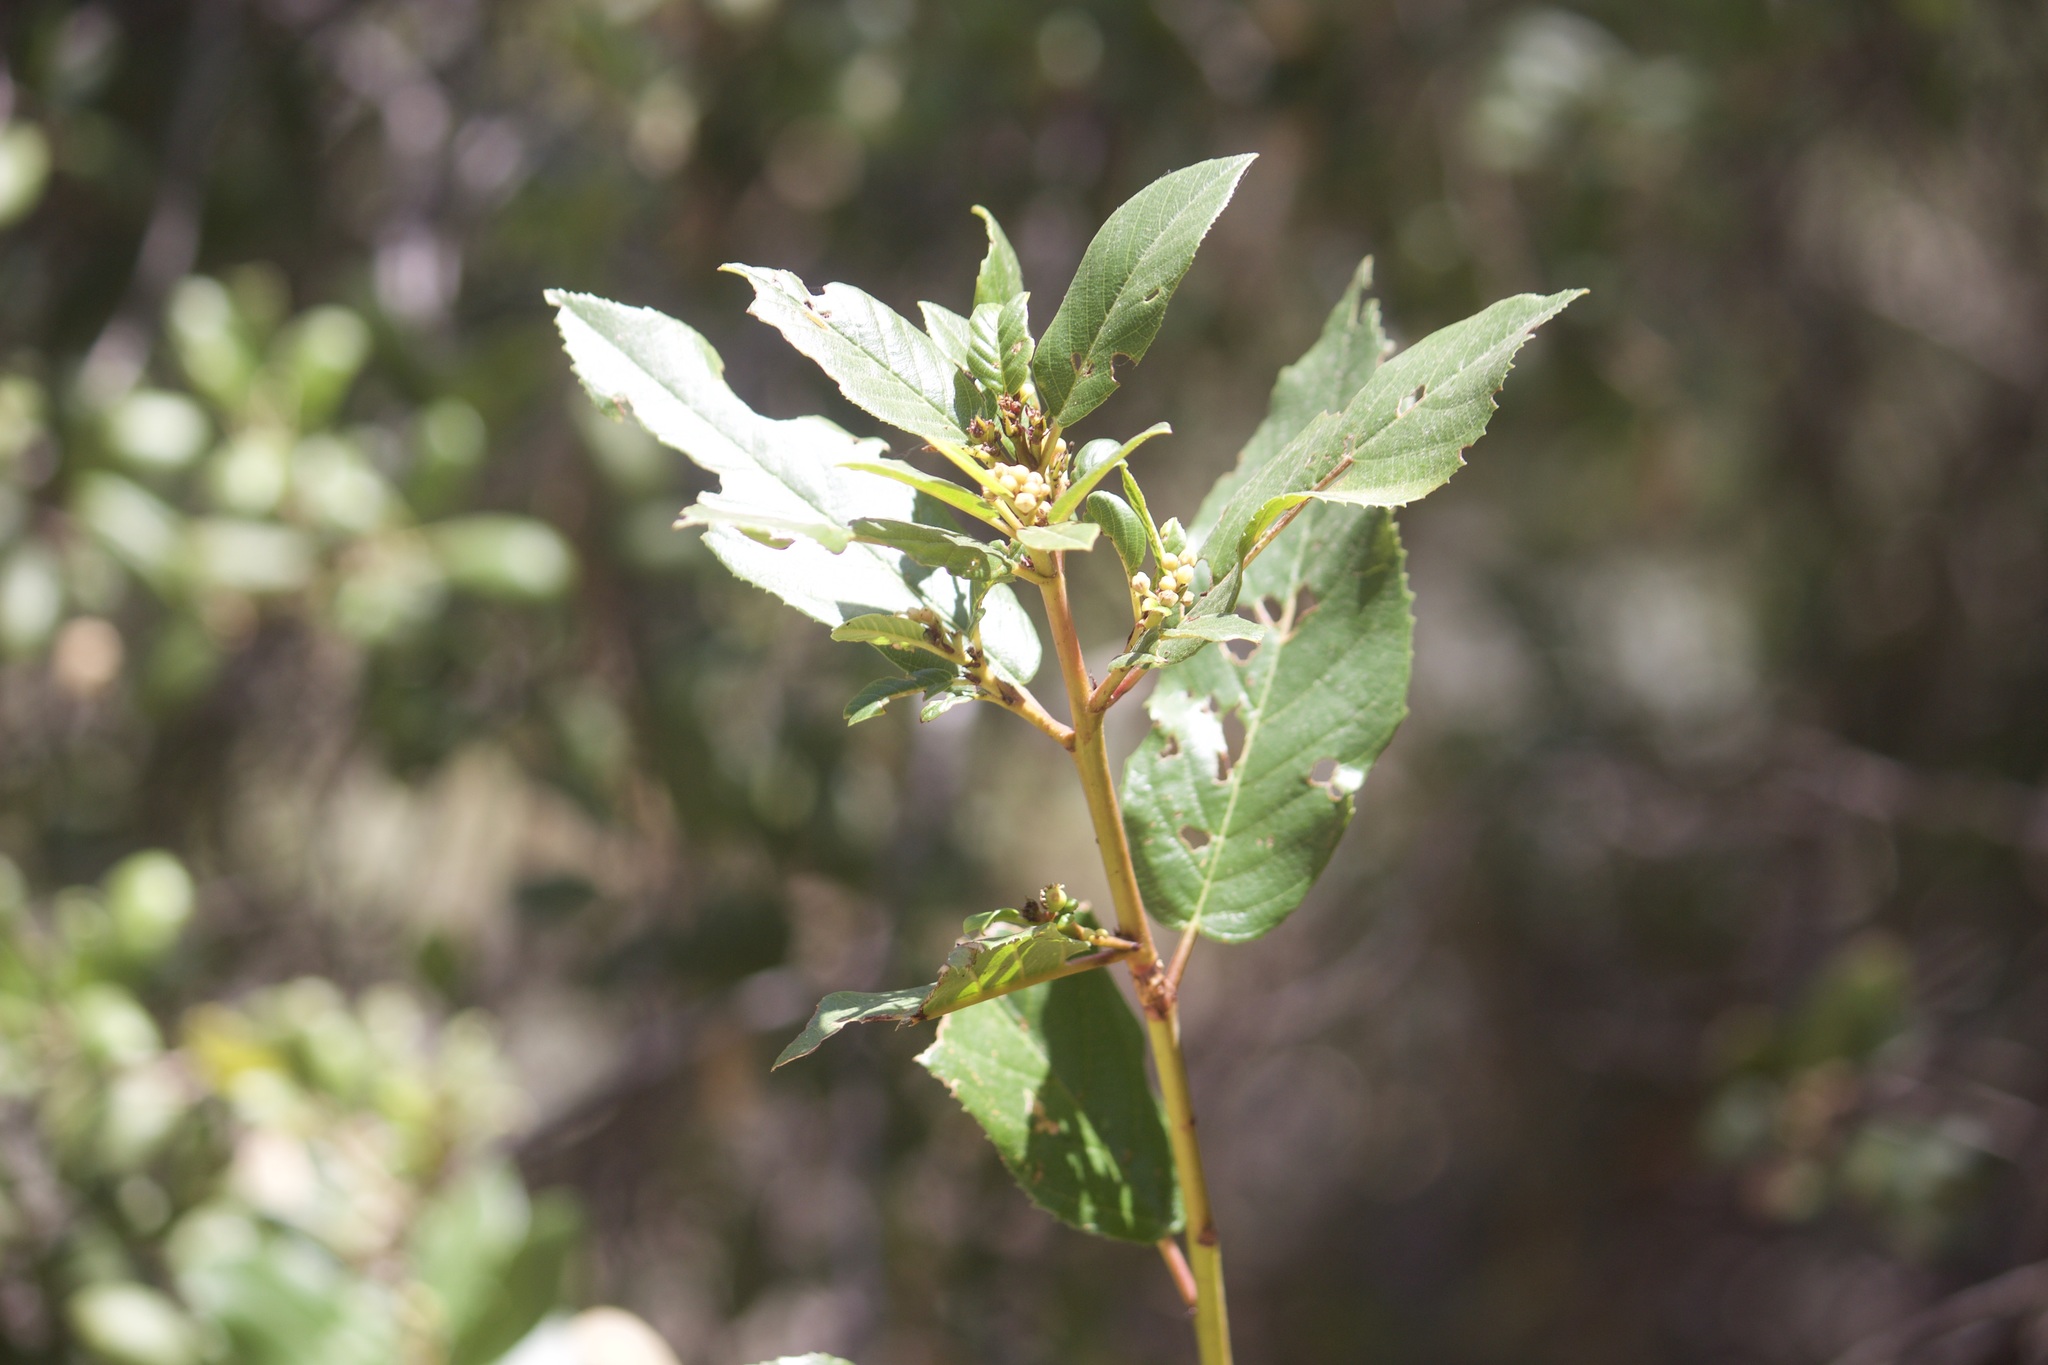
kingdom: Plantae
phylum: Tracheophyta
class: Magnoliopsida
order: Rosales
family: Rhamnaceae
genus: Frangula
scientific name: Frangula californica
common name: California buckthorn
